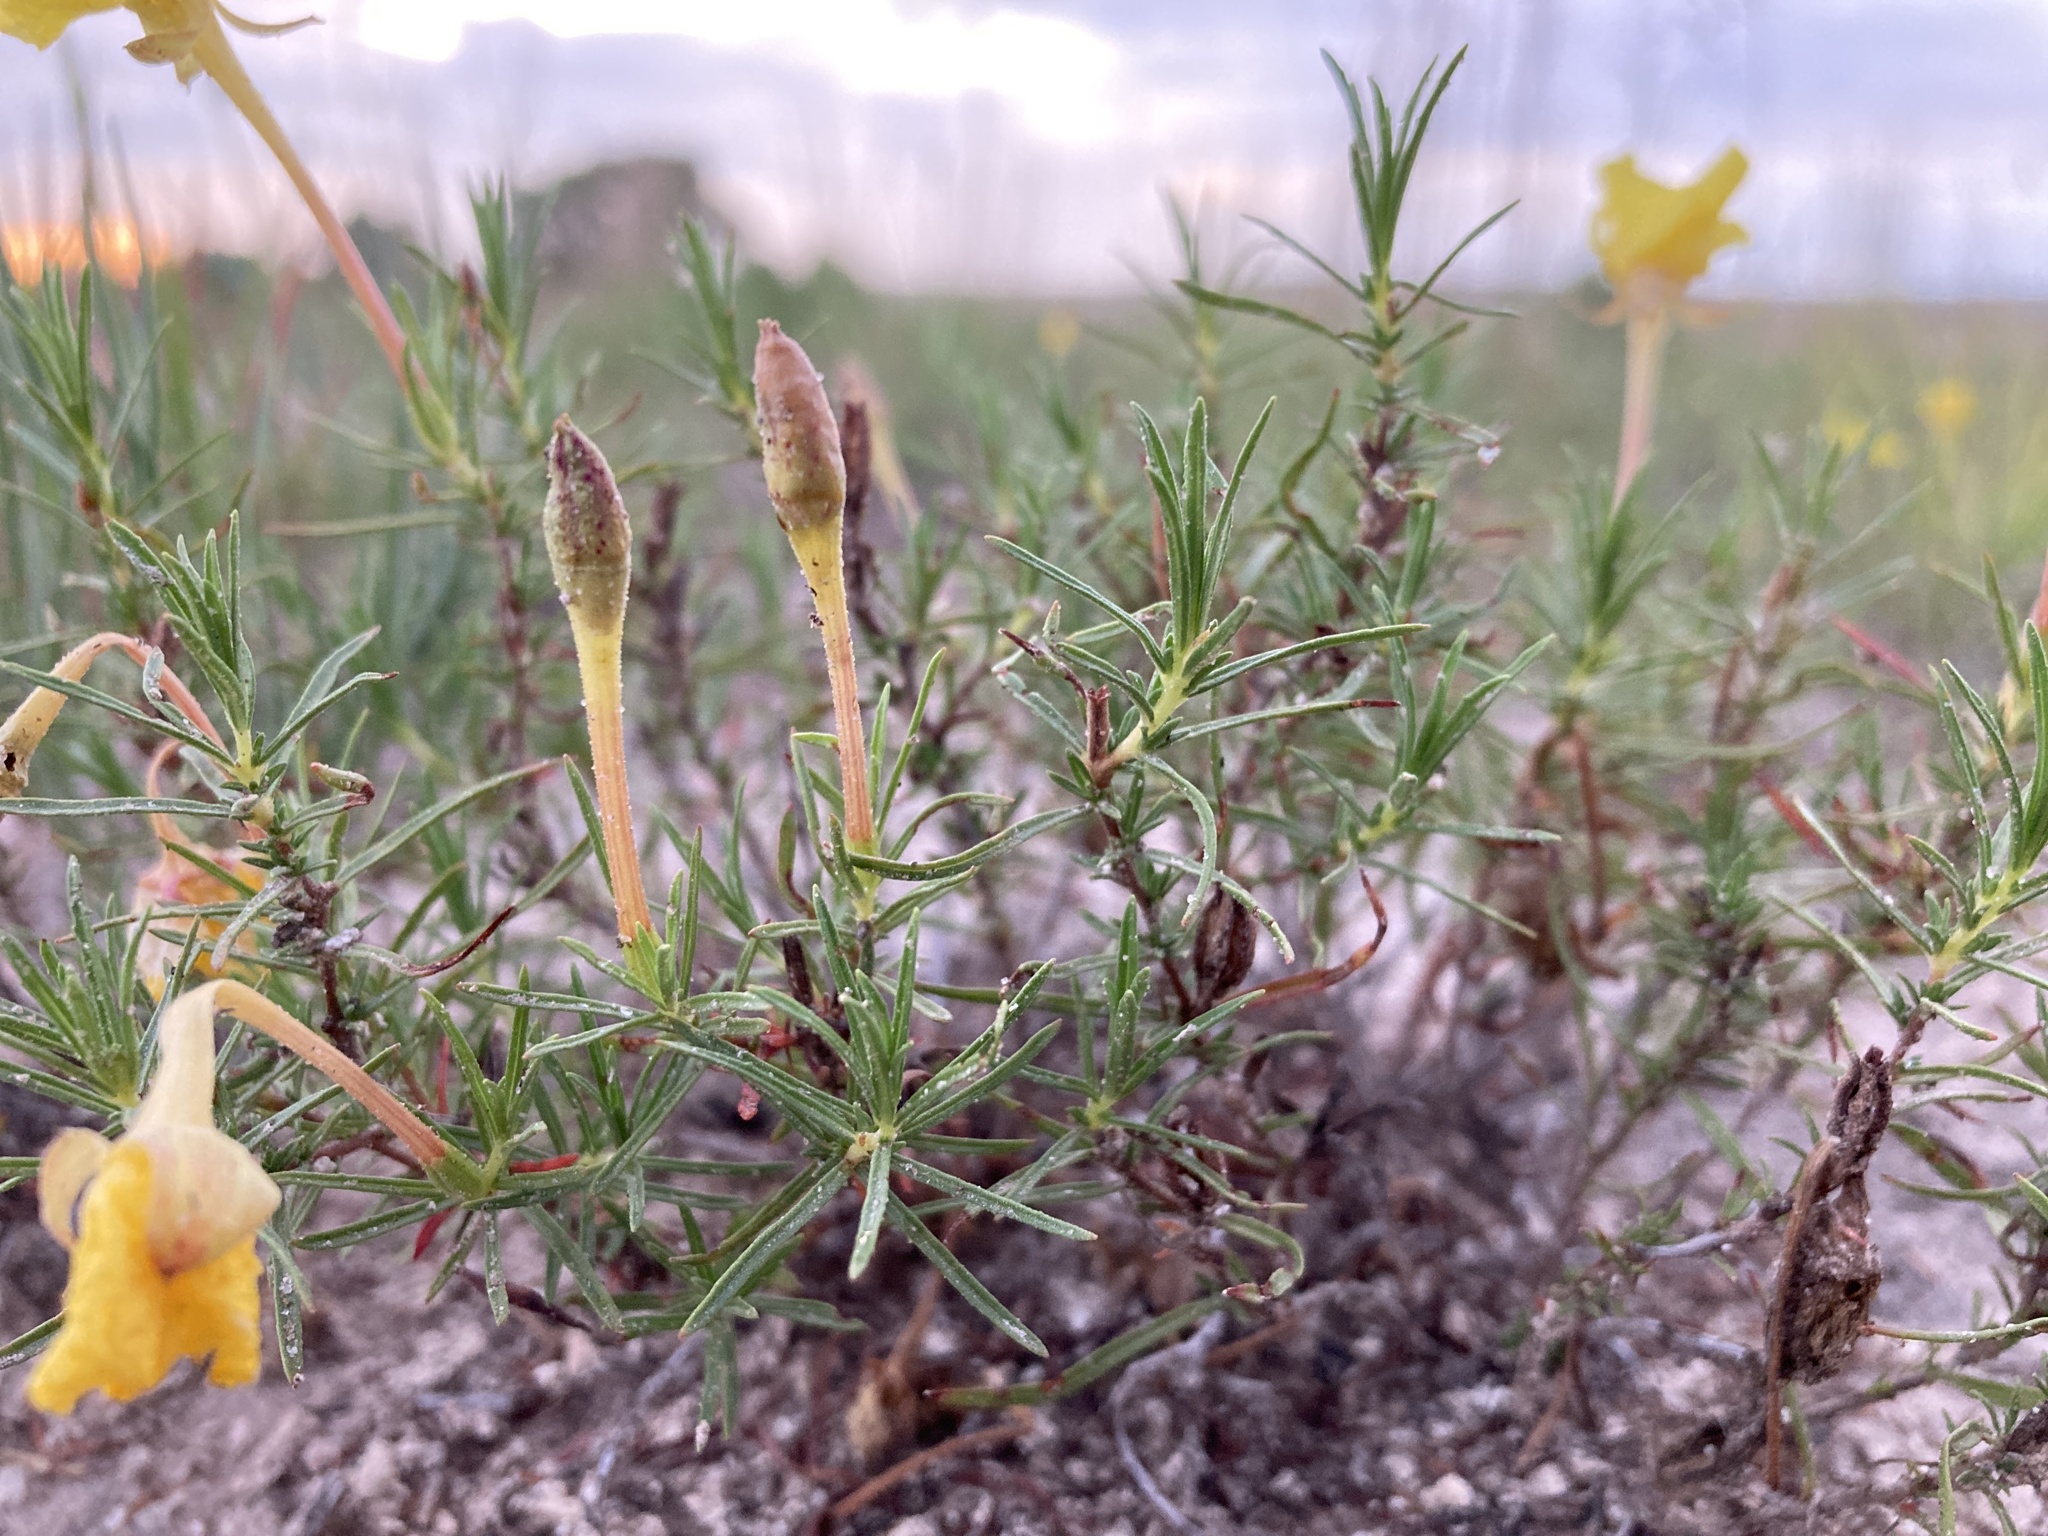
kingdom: Plantae
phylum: Tracheophyta
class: Magnoliopsida
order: Myrtales
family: Onagraceae
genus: Oenothera
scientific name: Oenothera hartwegii
